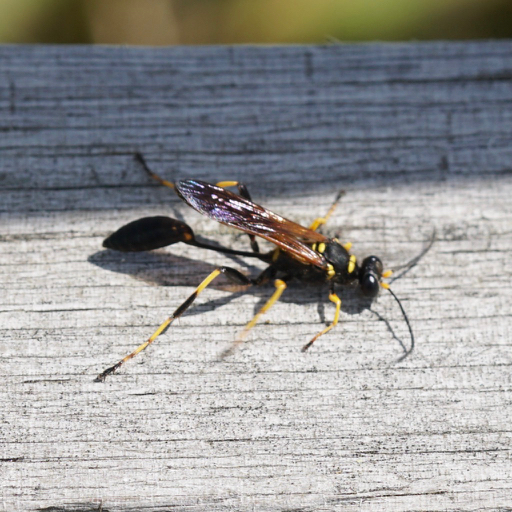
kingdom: Animalia
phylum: Arthropoda
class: Insecta
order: Hymenoptera
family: Sphecidae
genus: Sceliphron
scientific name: Sceliphron caementarium
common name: Mud dauber
